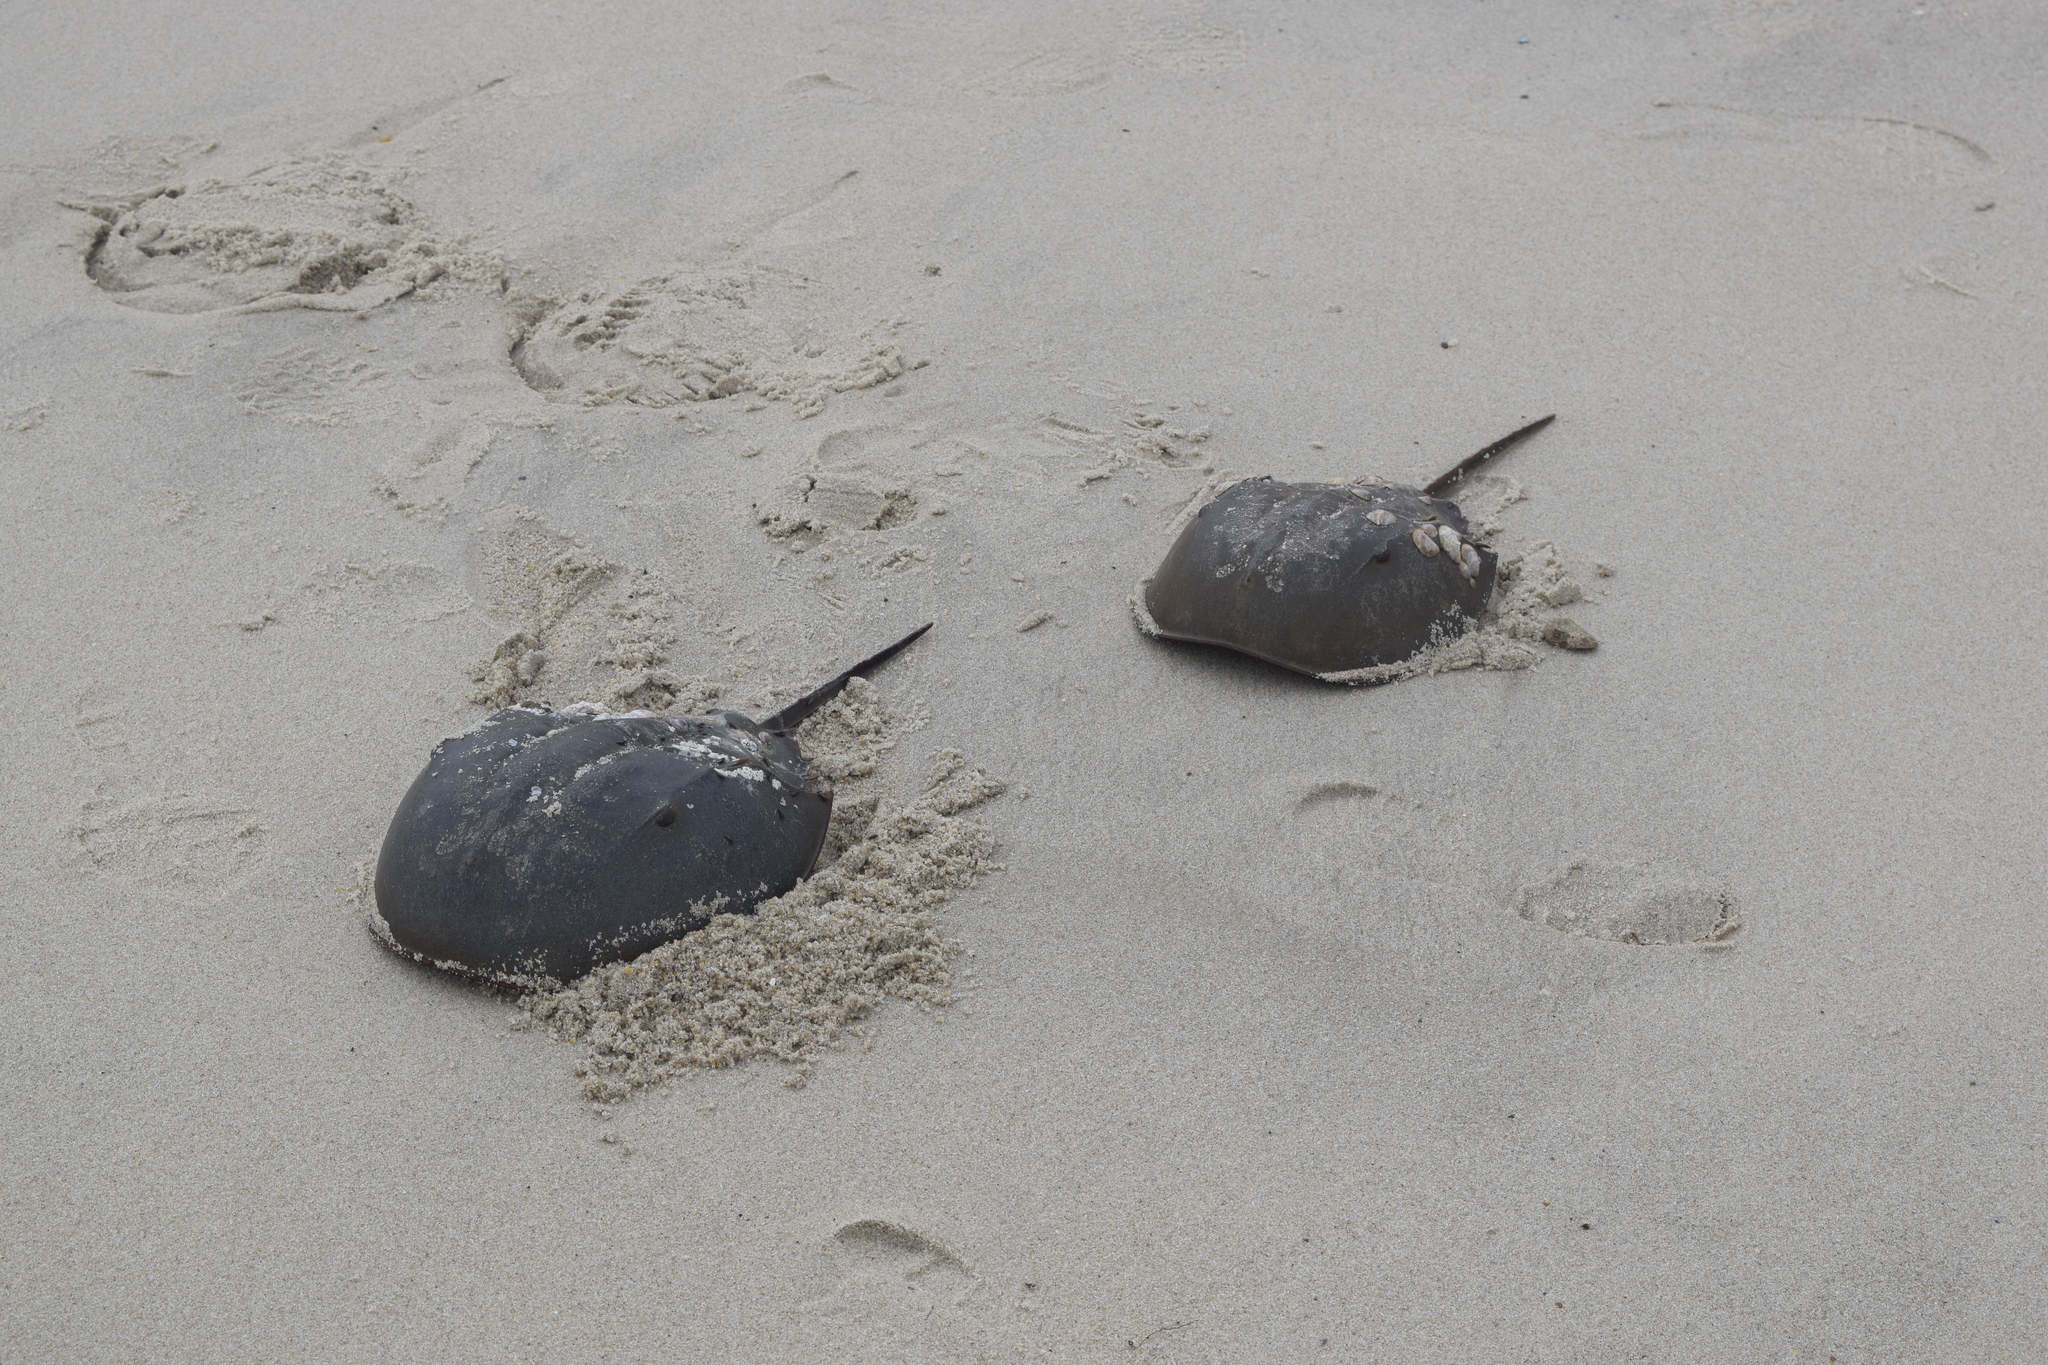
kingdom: Animalia
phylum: Arthropoda
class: Merostomata
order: Xiphosurida
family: Limulidae
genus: Limulus
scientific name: Limulus polyphemus
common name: Horseshoe crab
